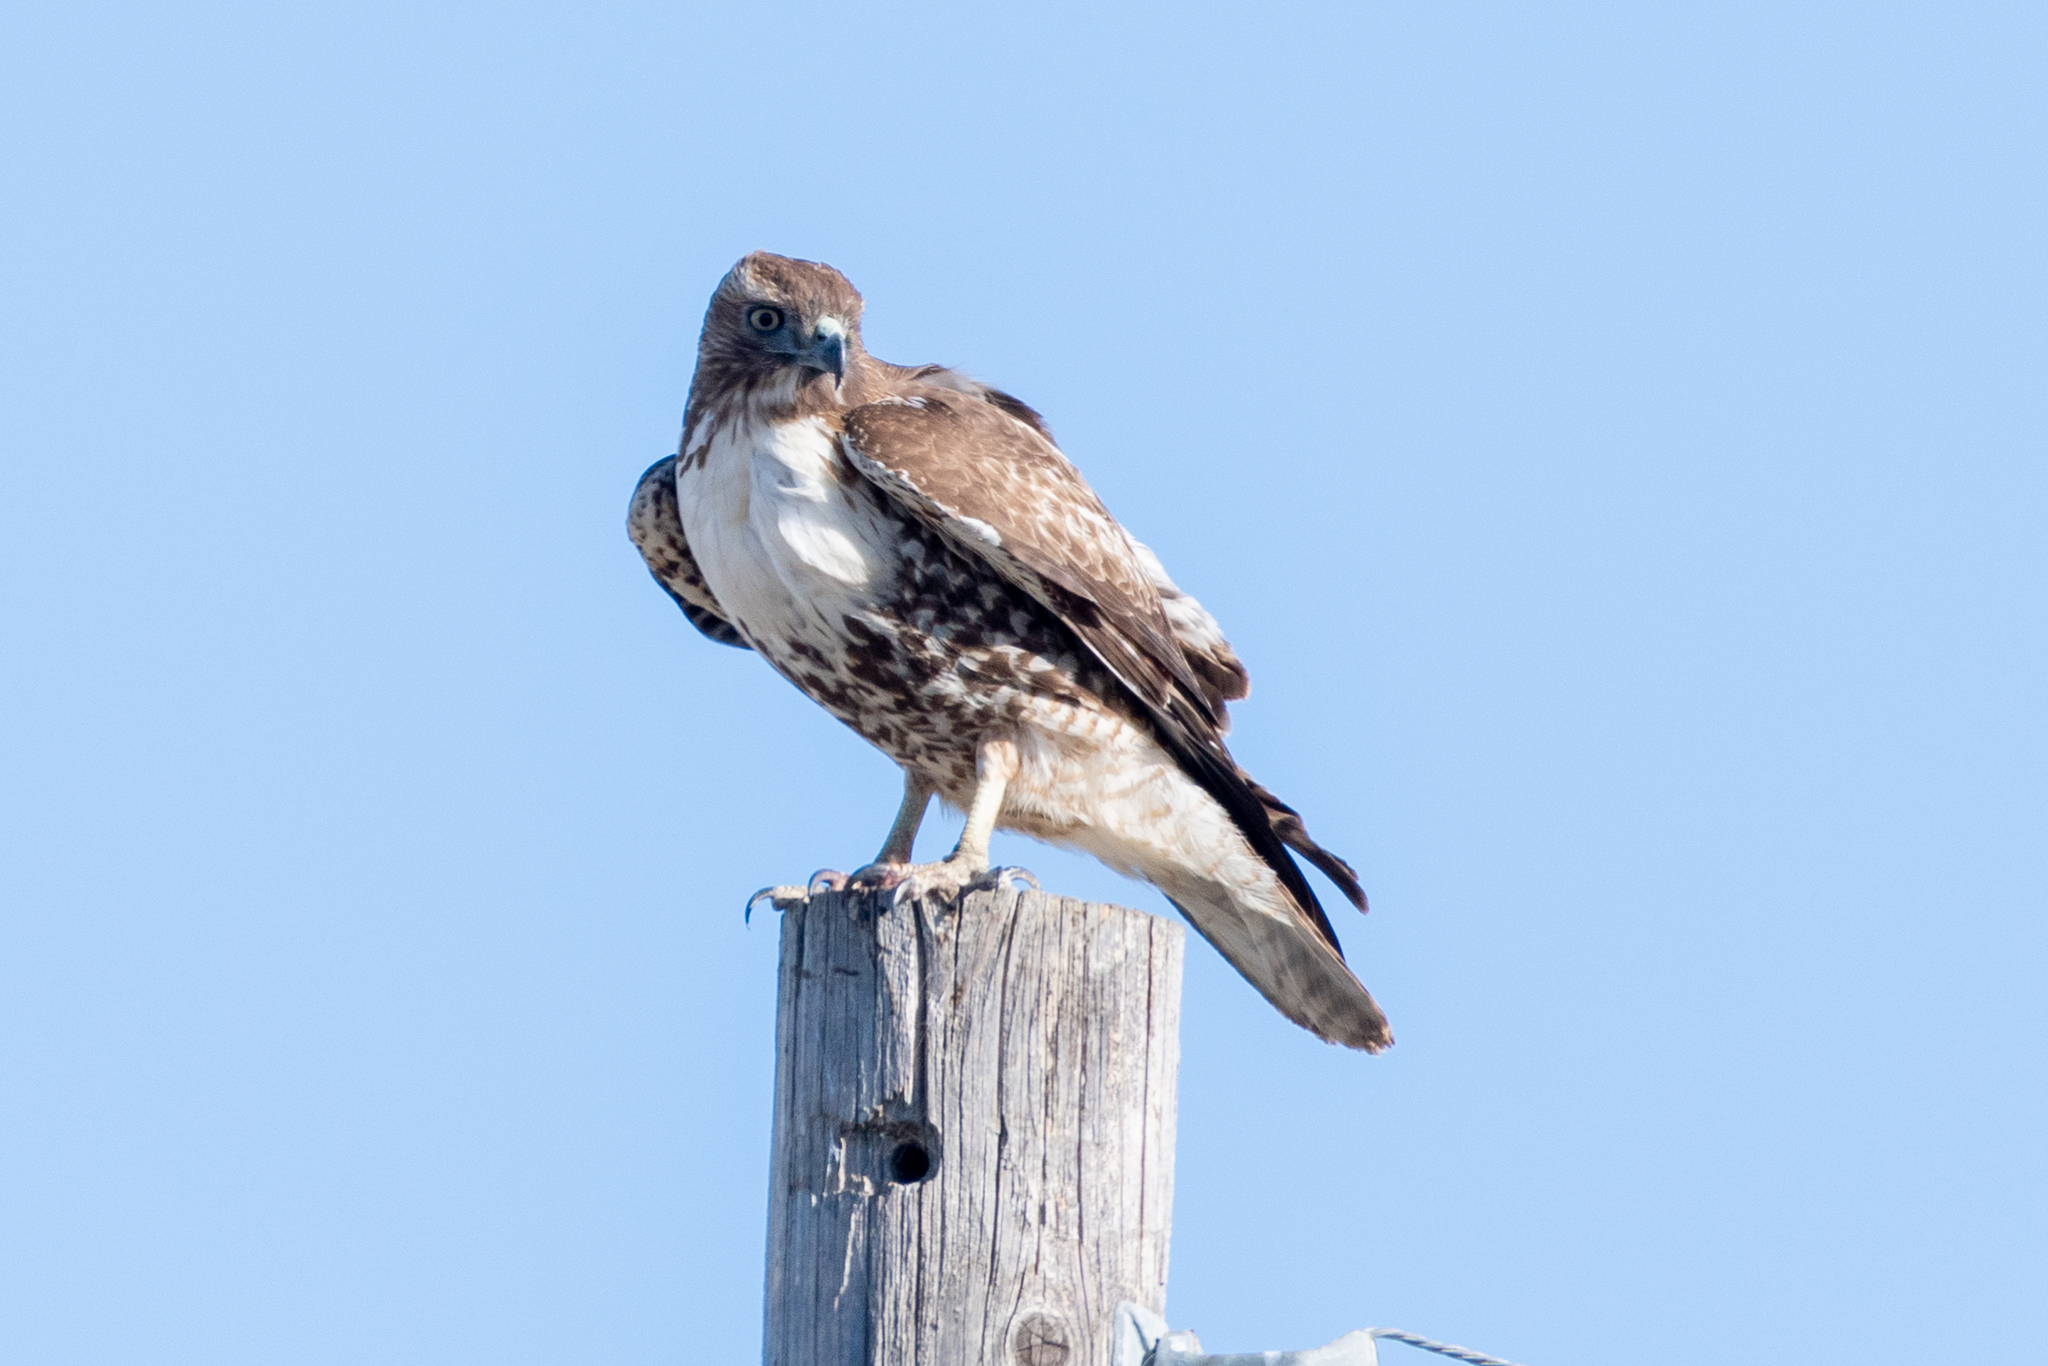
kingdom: Animalia
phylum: Chordata
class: Aves
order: Accipitriformes
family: Accipitridae
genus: Buteo
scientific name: Buteo jamaicensis
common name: Red-tailed hawk
